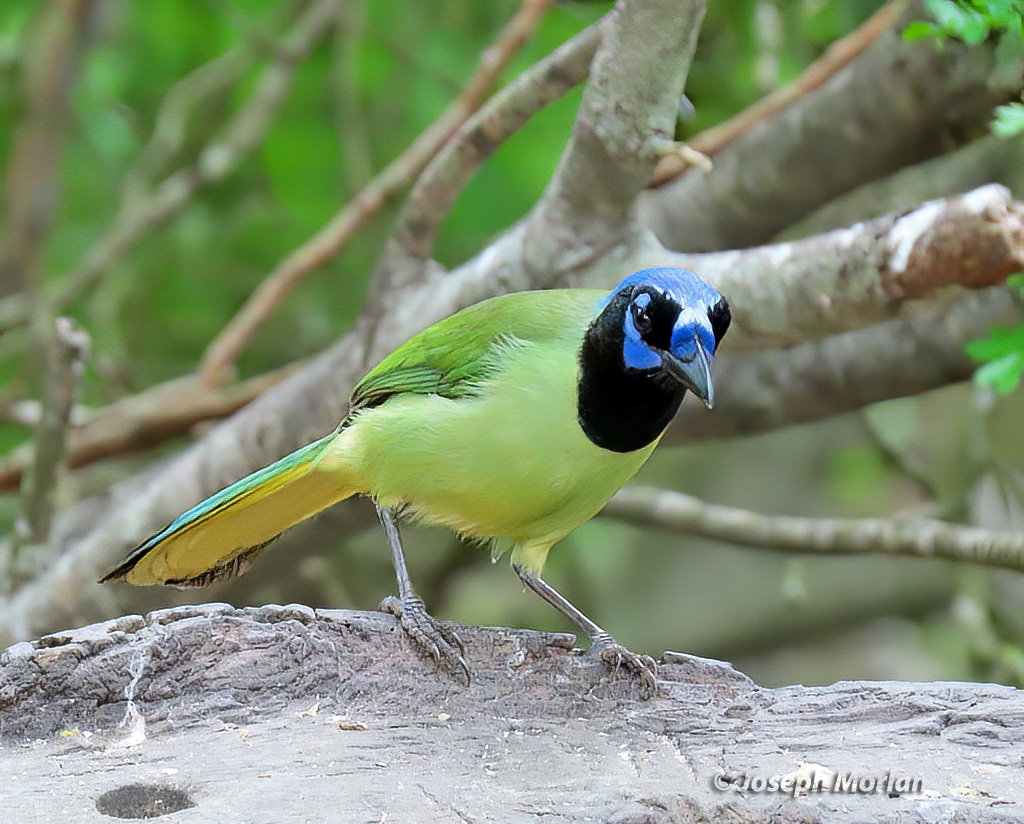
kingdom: Animalia
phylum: Chordata
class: Aves
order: Passeriformes
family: Corvidae
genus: Cyanocorax
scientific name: Cyanocorax yncas
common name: Green jay
